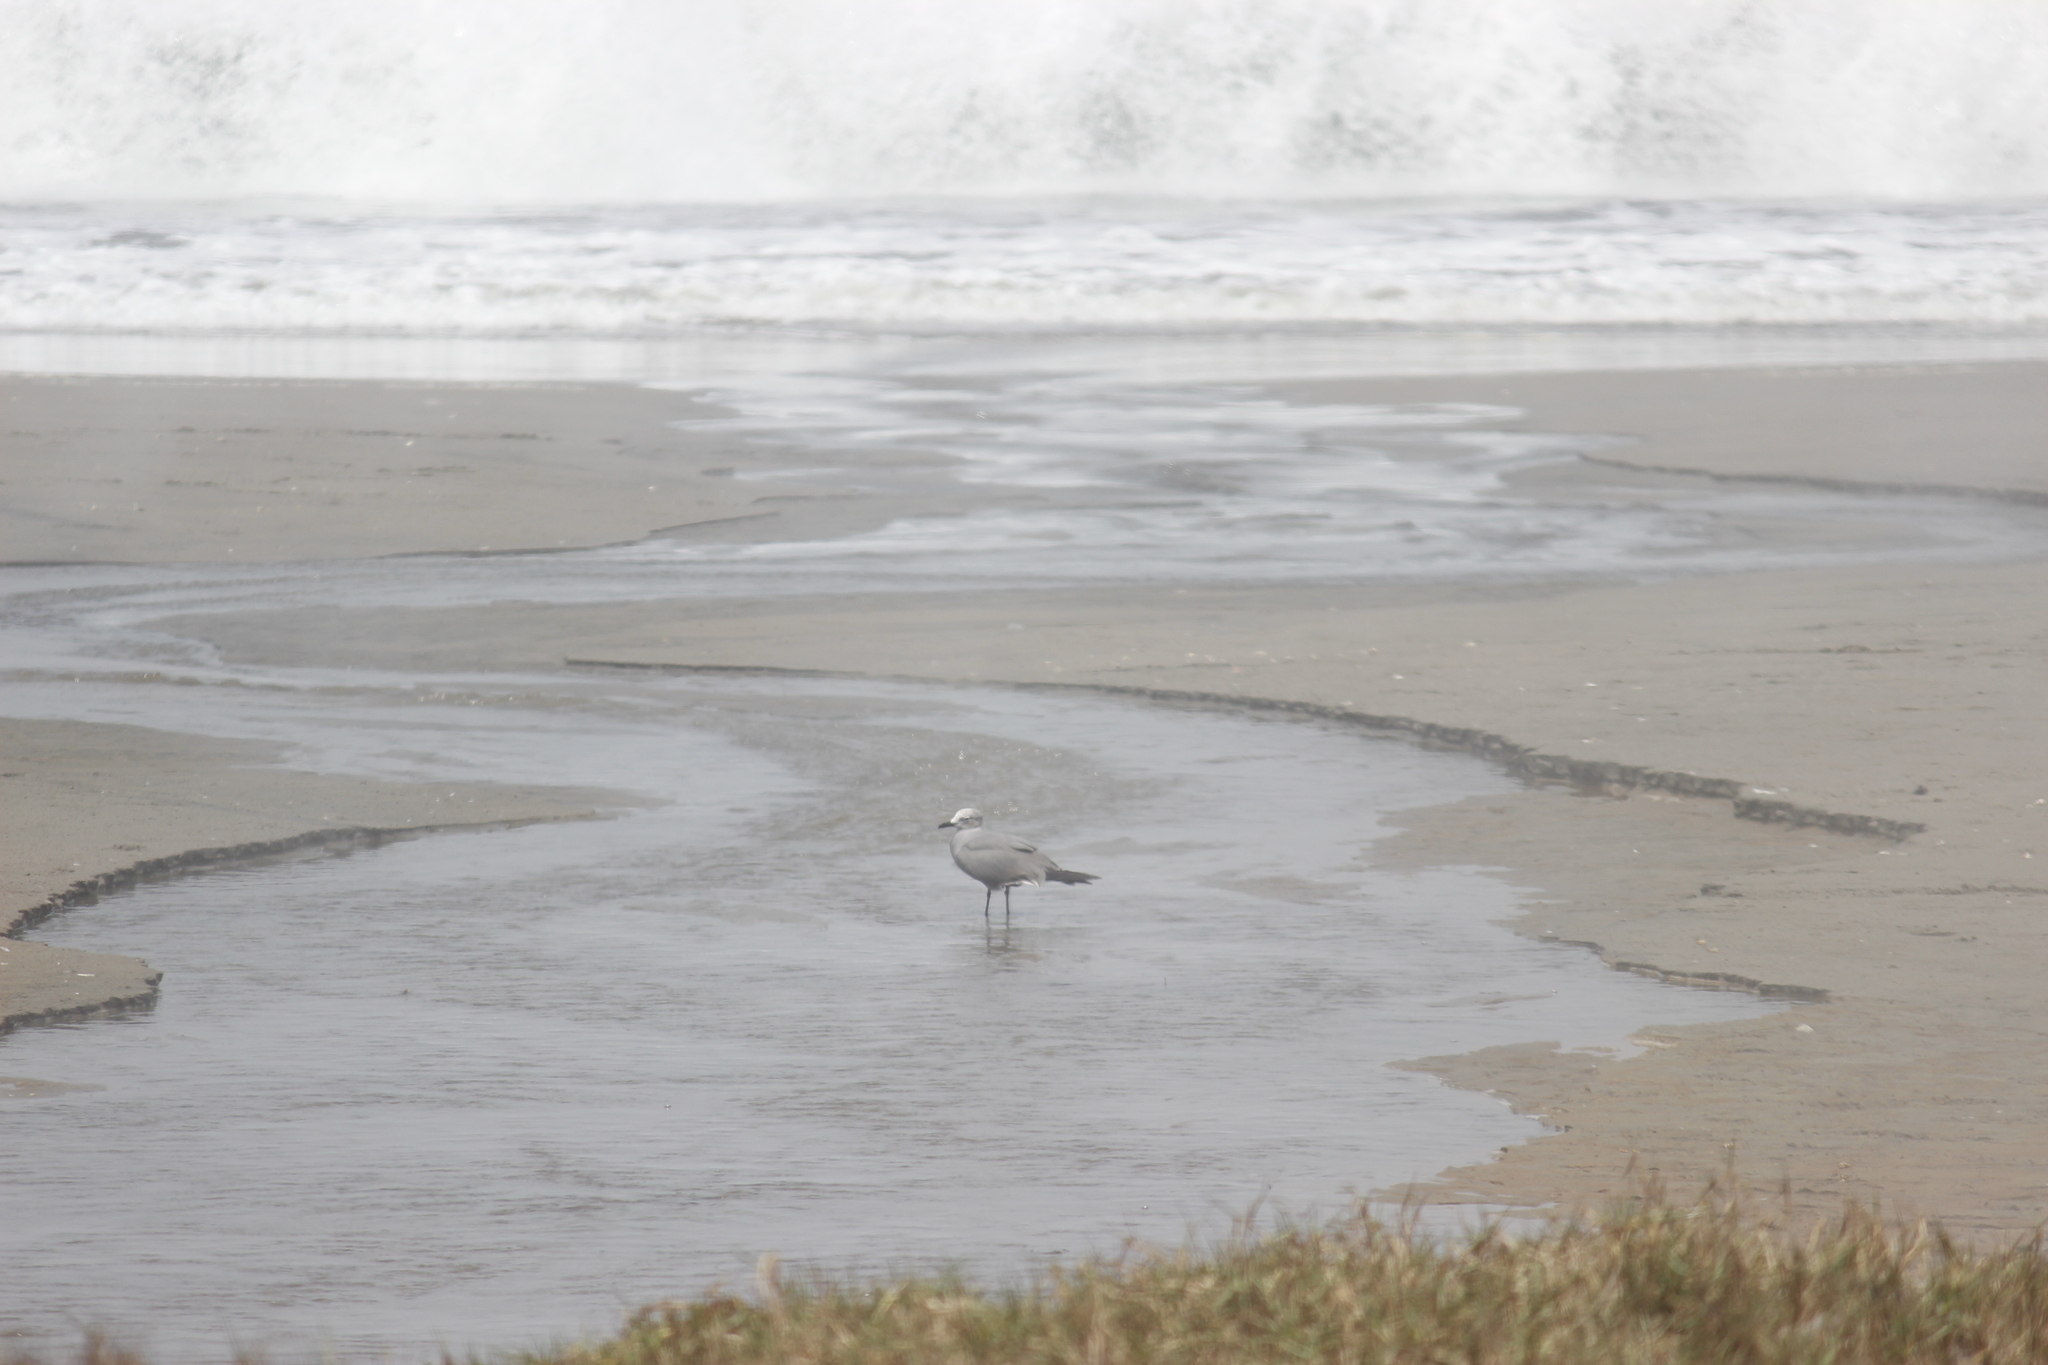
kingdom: Animalia
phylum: Chordata
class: Aves
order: Charadriiformes
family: Laridae
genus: Leucophaeus
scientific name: Leucophaeus modestus
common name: Gray gull
